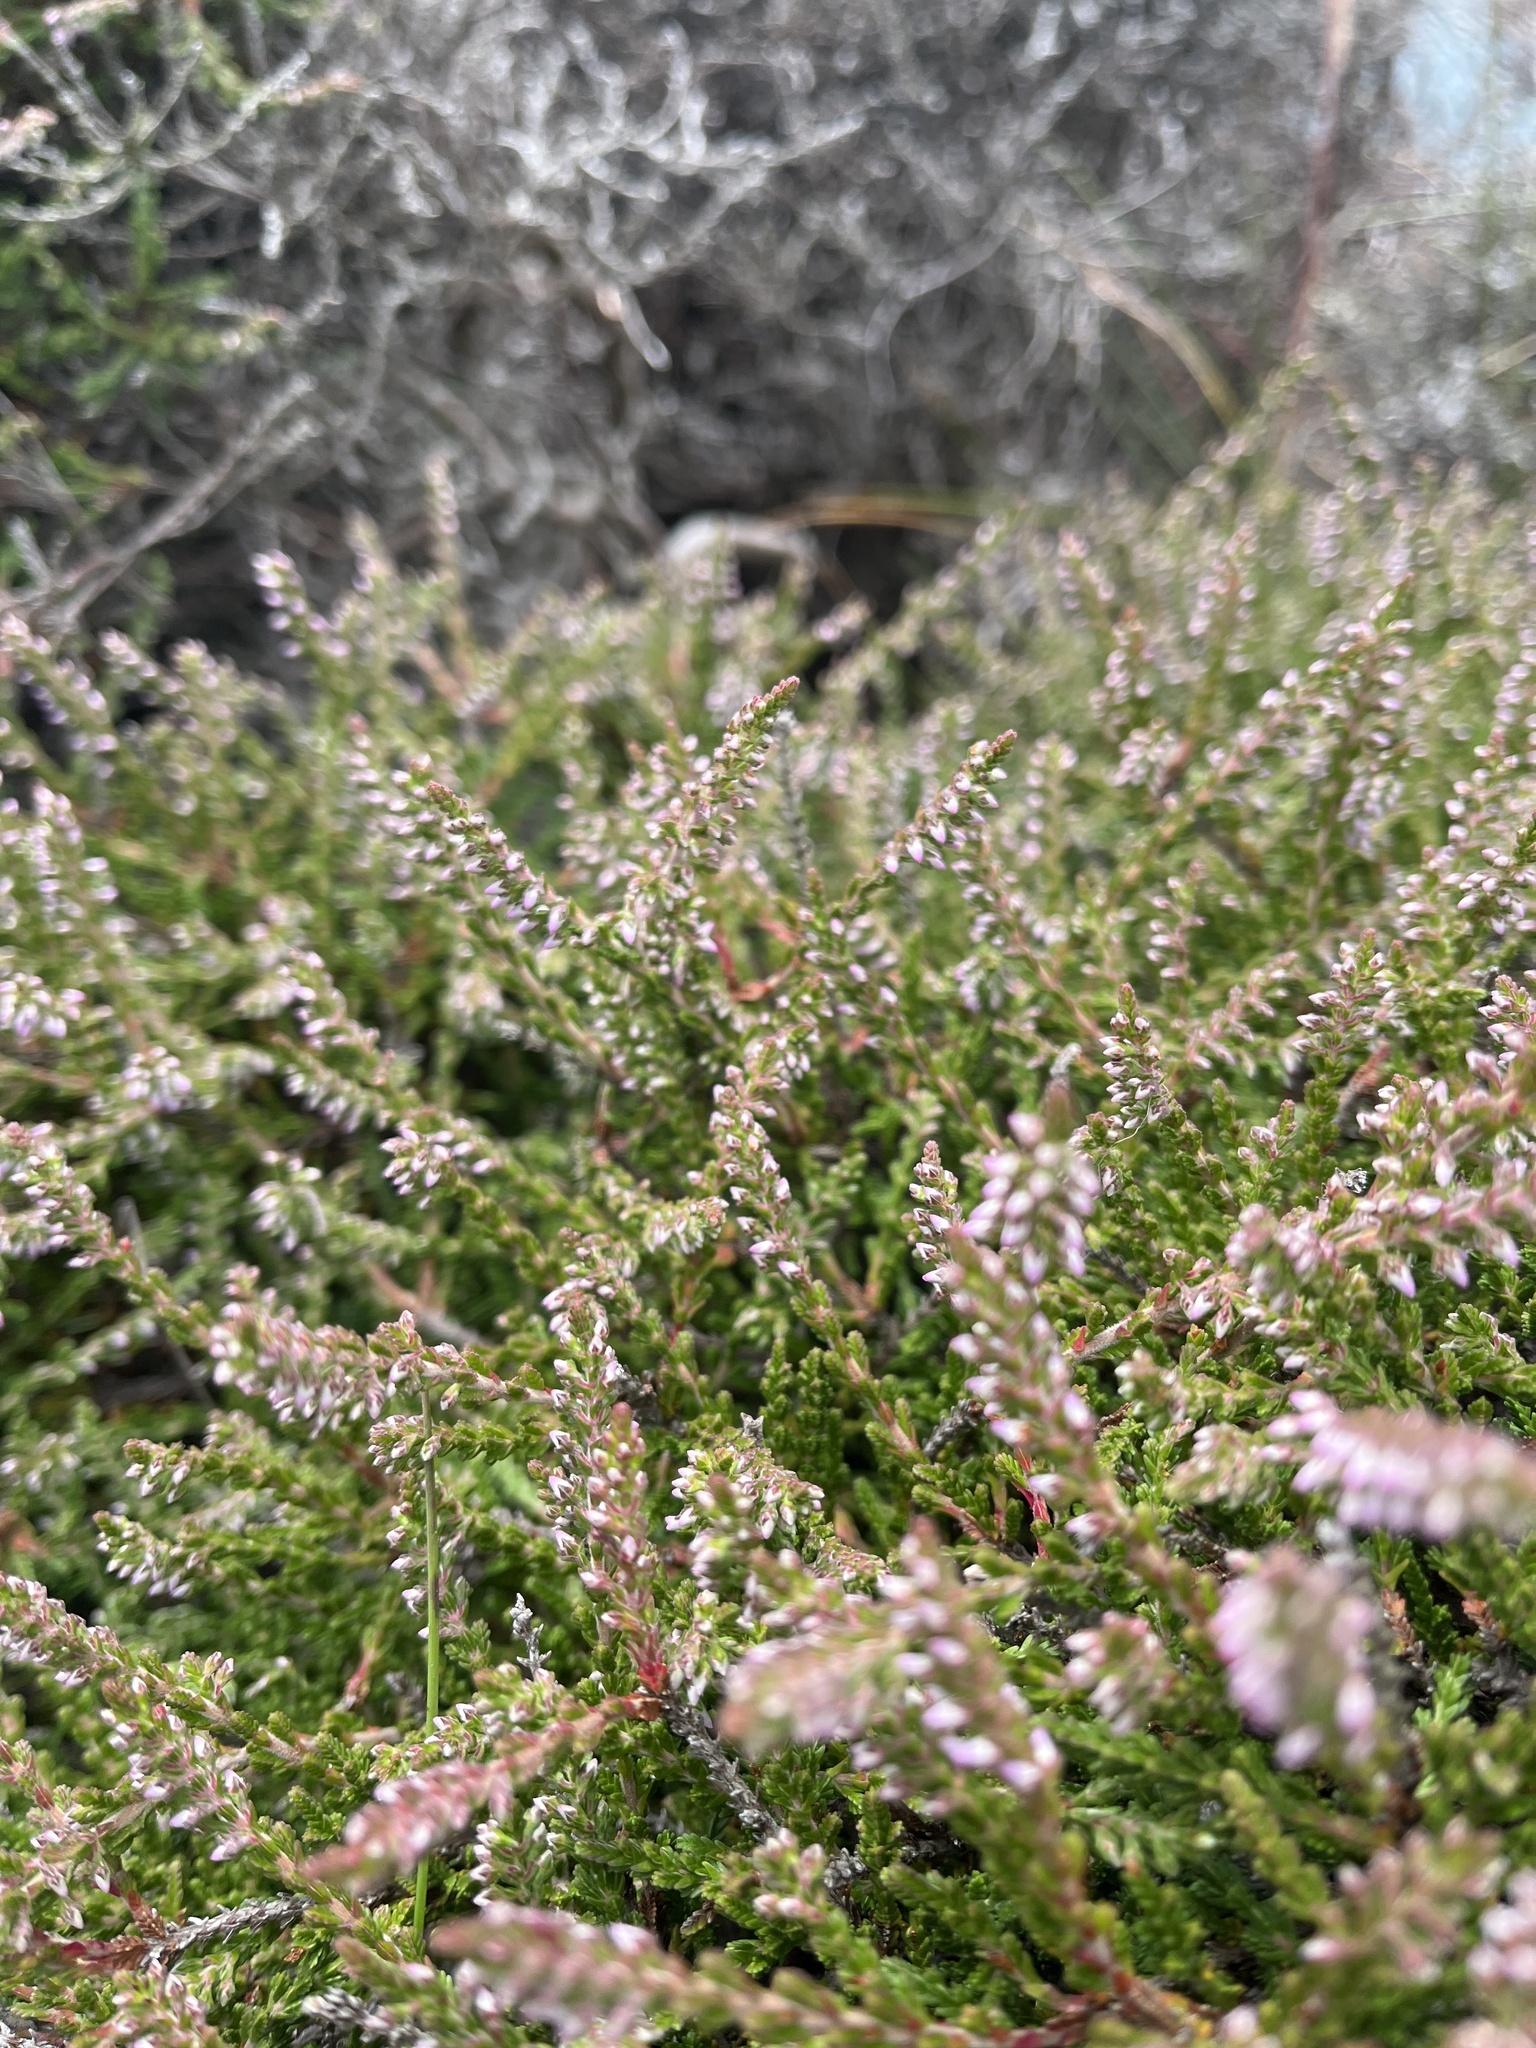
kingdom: Plantae
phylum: Tracheophyta
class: Magnoliopsida
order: Ericales
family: Ericaceae
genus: Calluna
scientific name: Calluna vulgaris
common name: Heather
